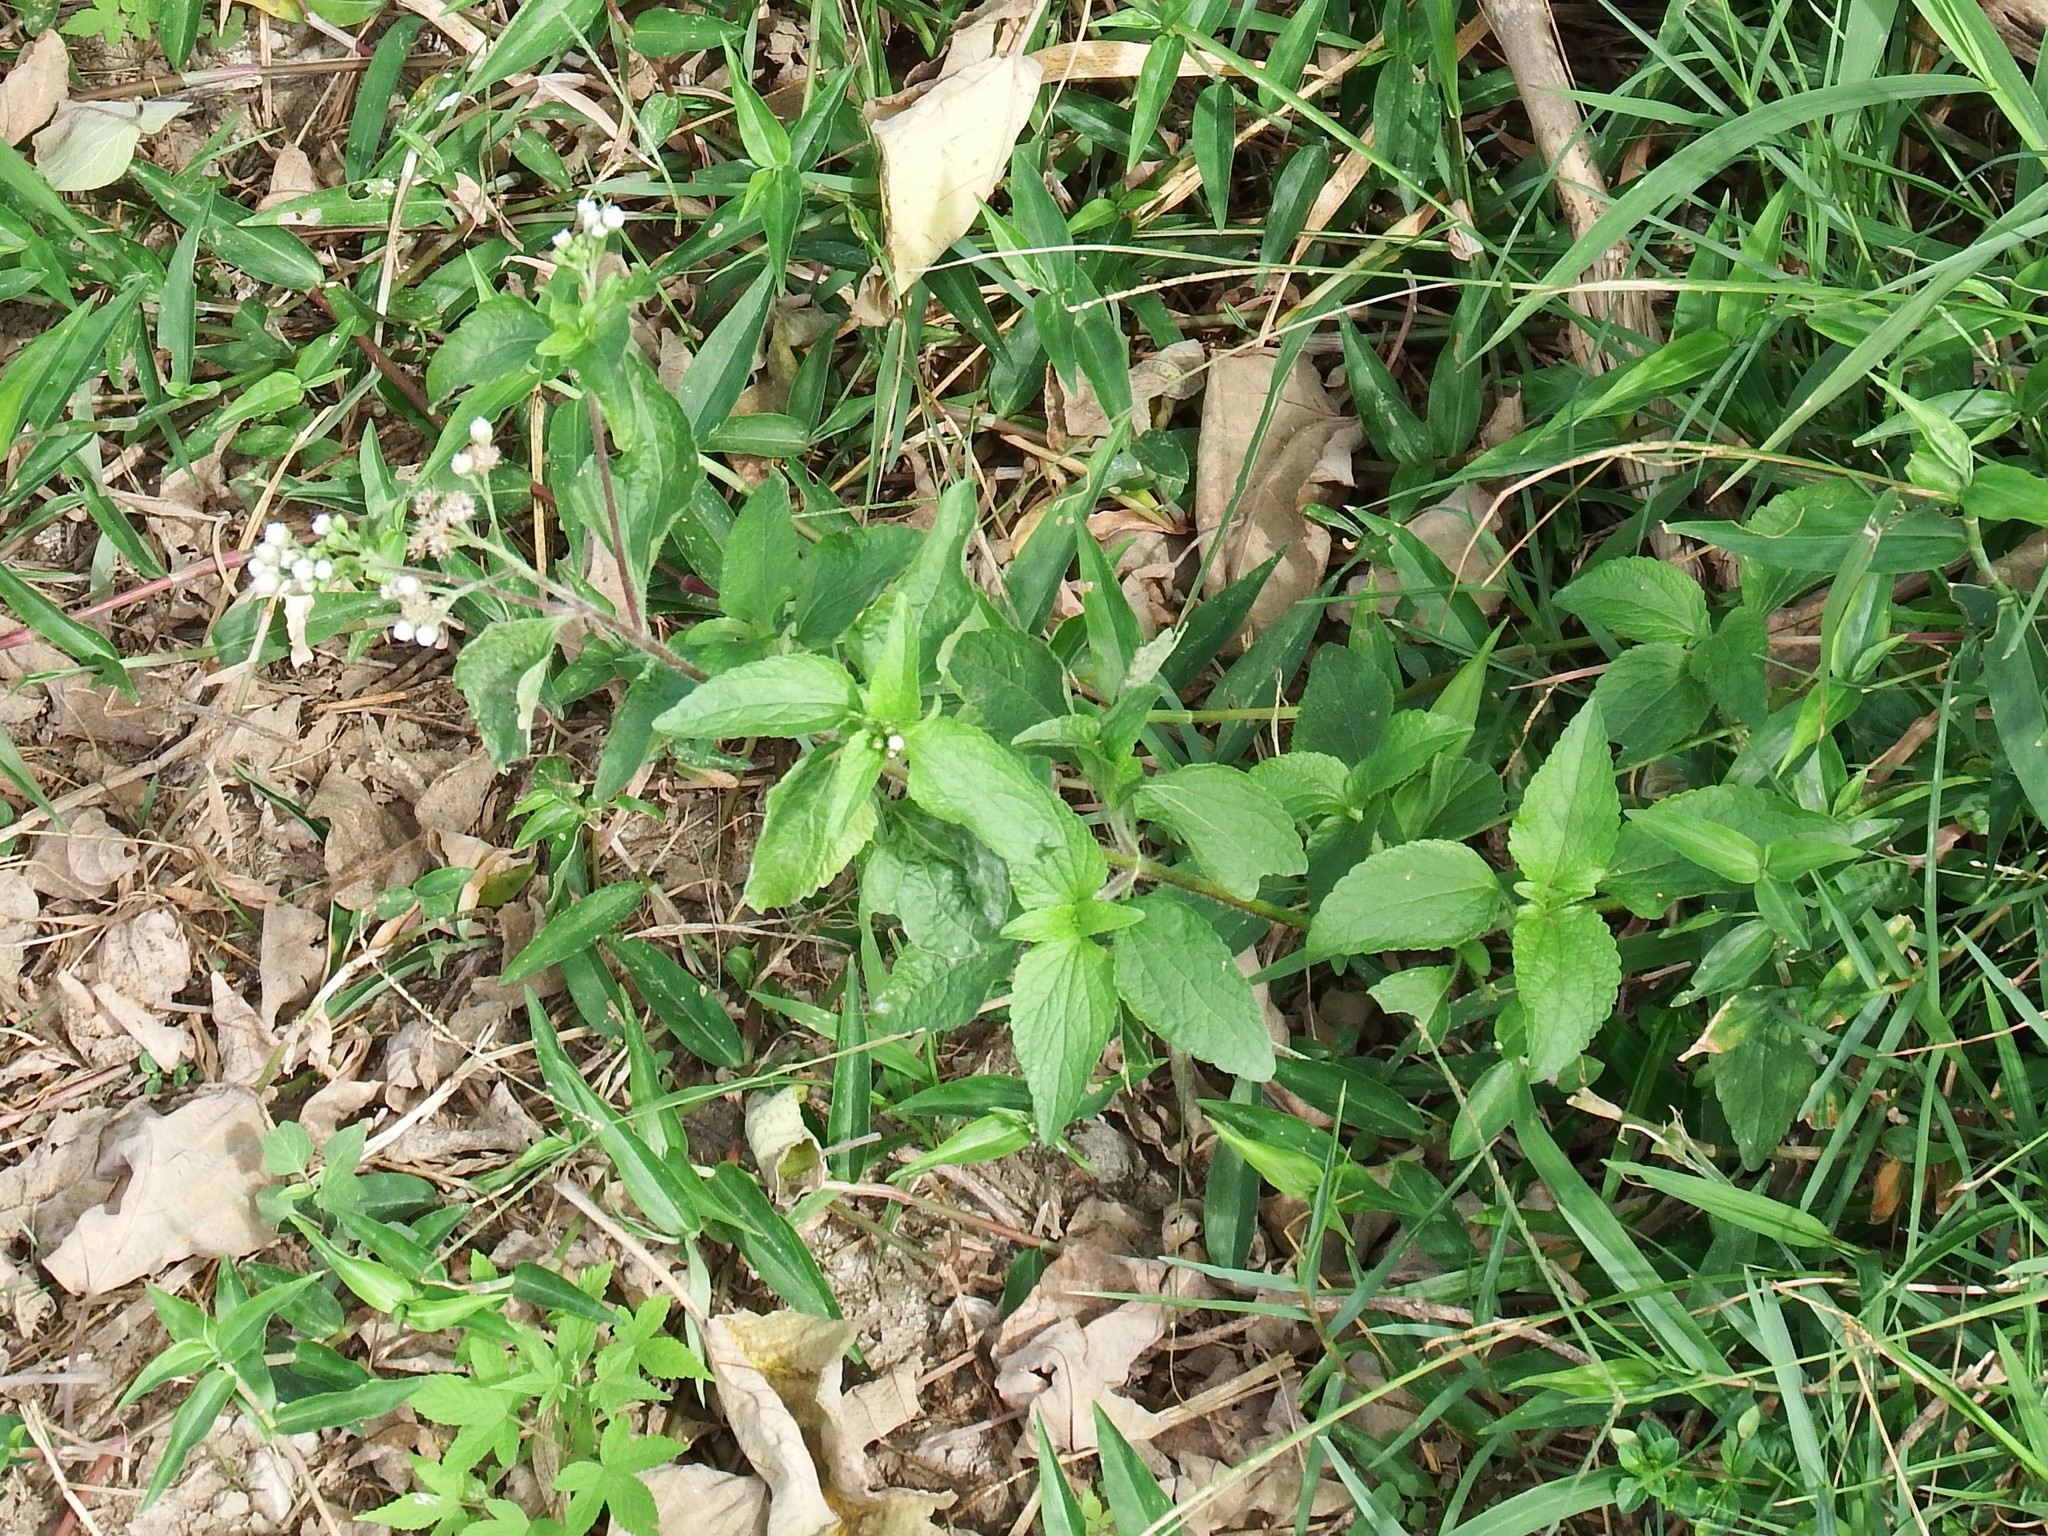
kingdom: Plantae
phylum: Tracheophyta
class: Magnoliopsida
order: Asterales
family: Asteraceae
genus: Ageratum
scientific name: Ageratum conyzoides
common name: Tropical whiteweed
